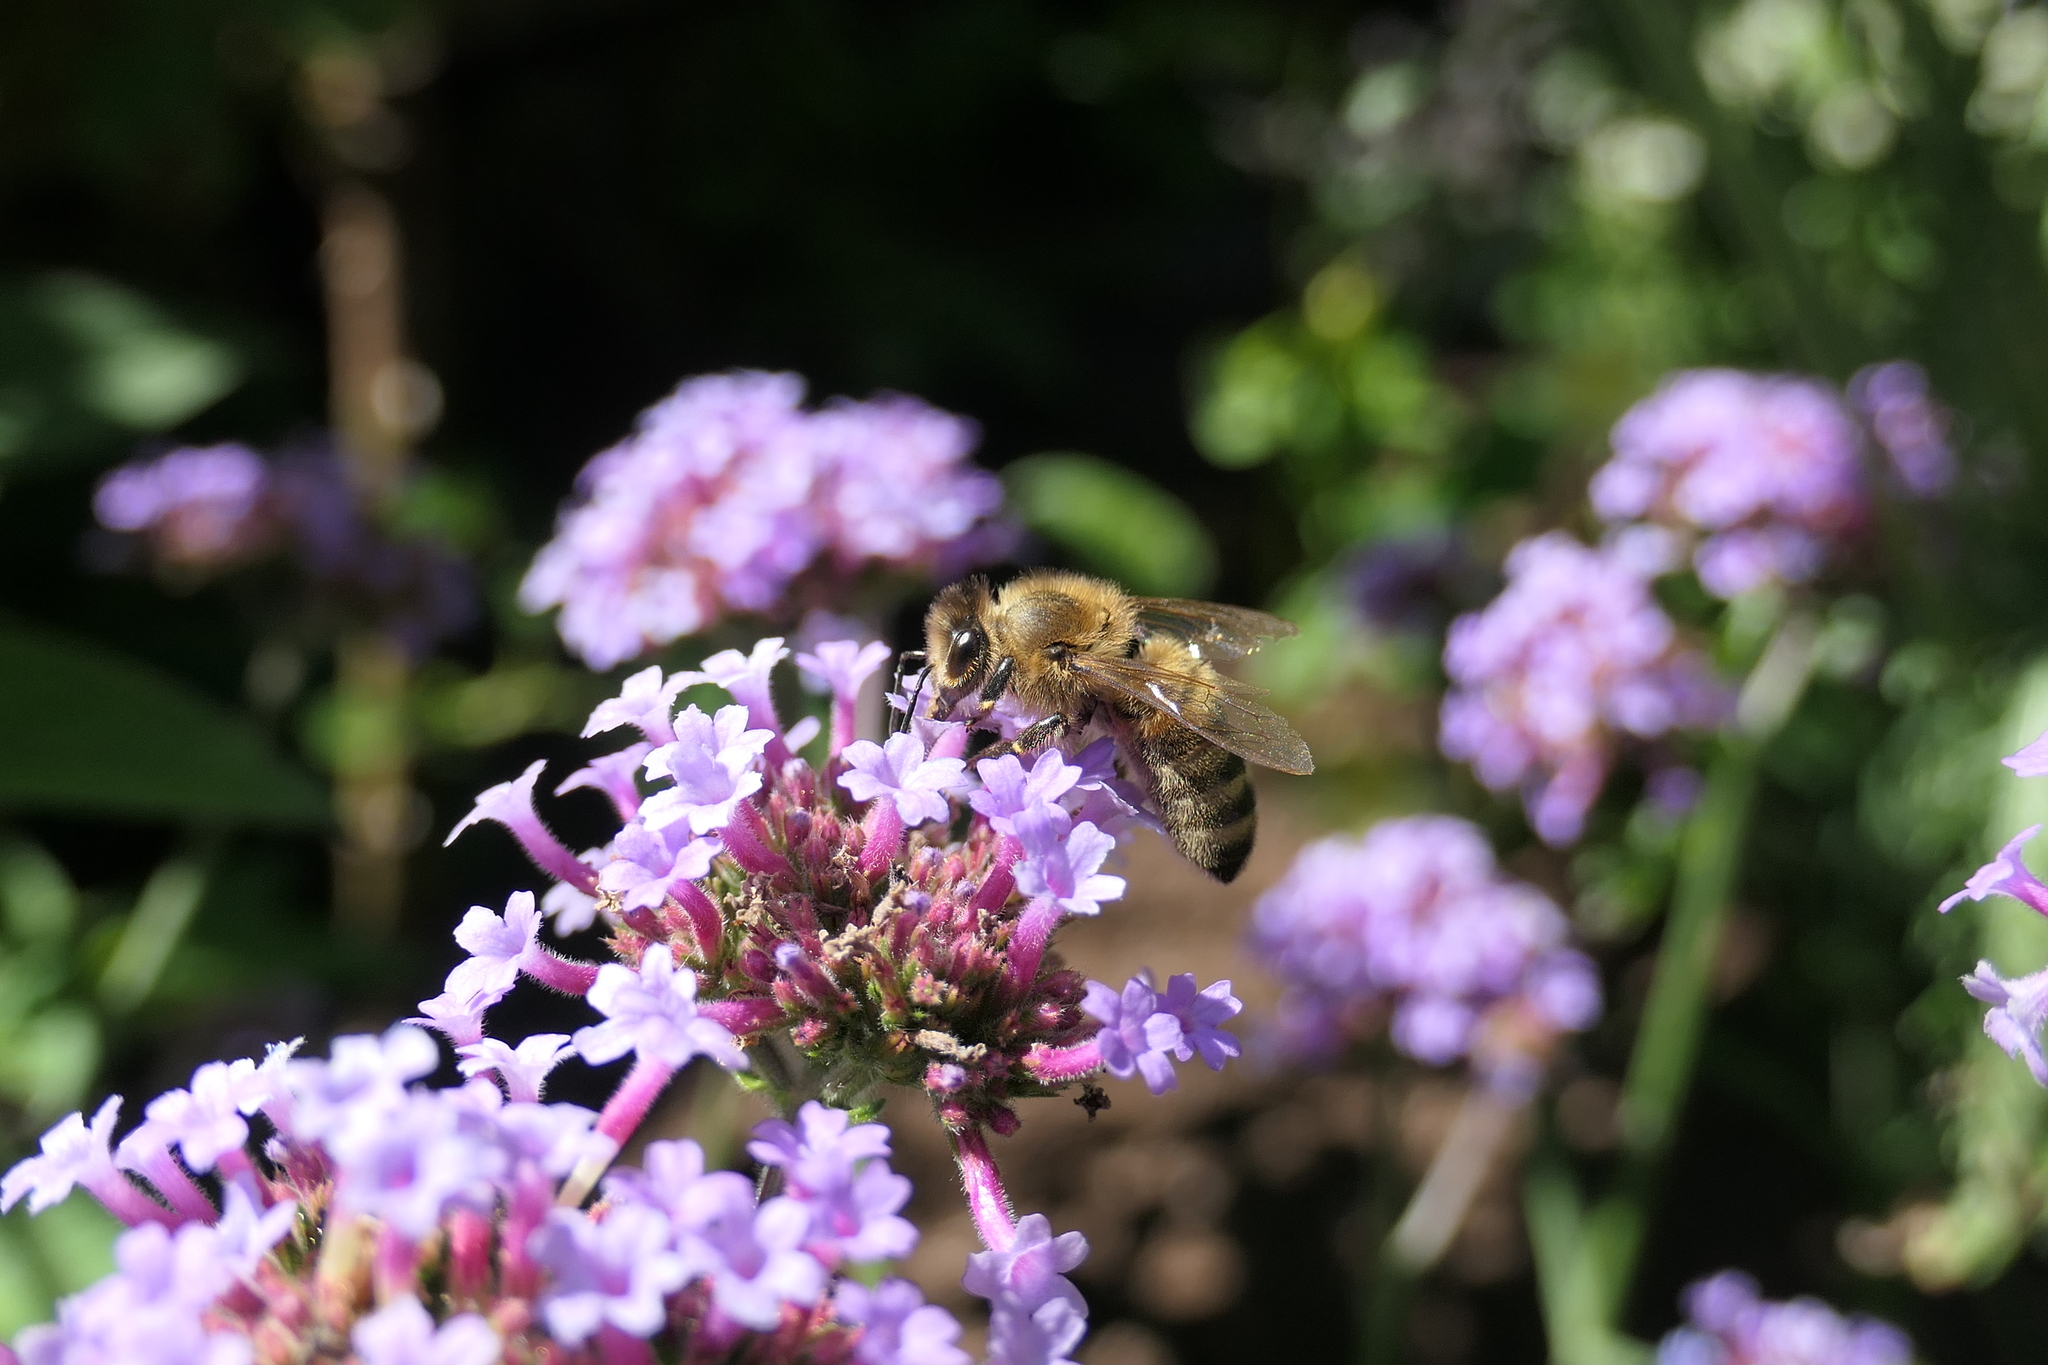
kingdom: Animalia
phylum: Arthropoda
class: Insecta
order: Hymenoptera
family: Apidae
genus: Apis
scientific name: Apis mellifera
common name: Honey bee
